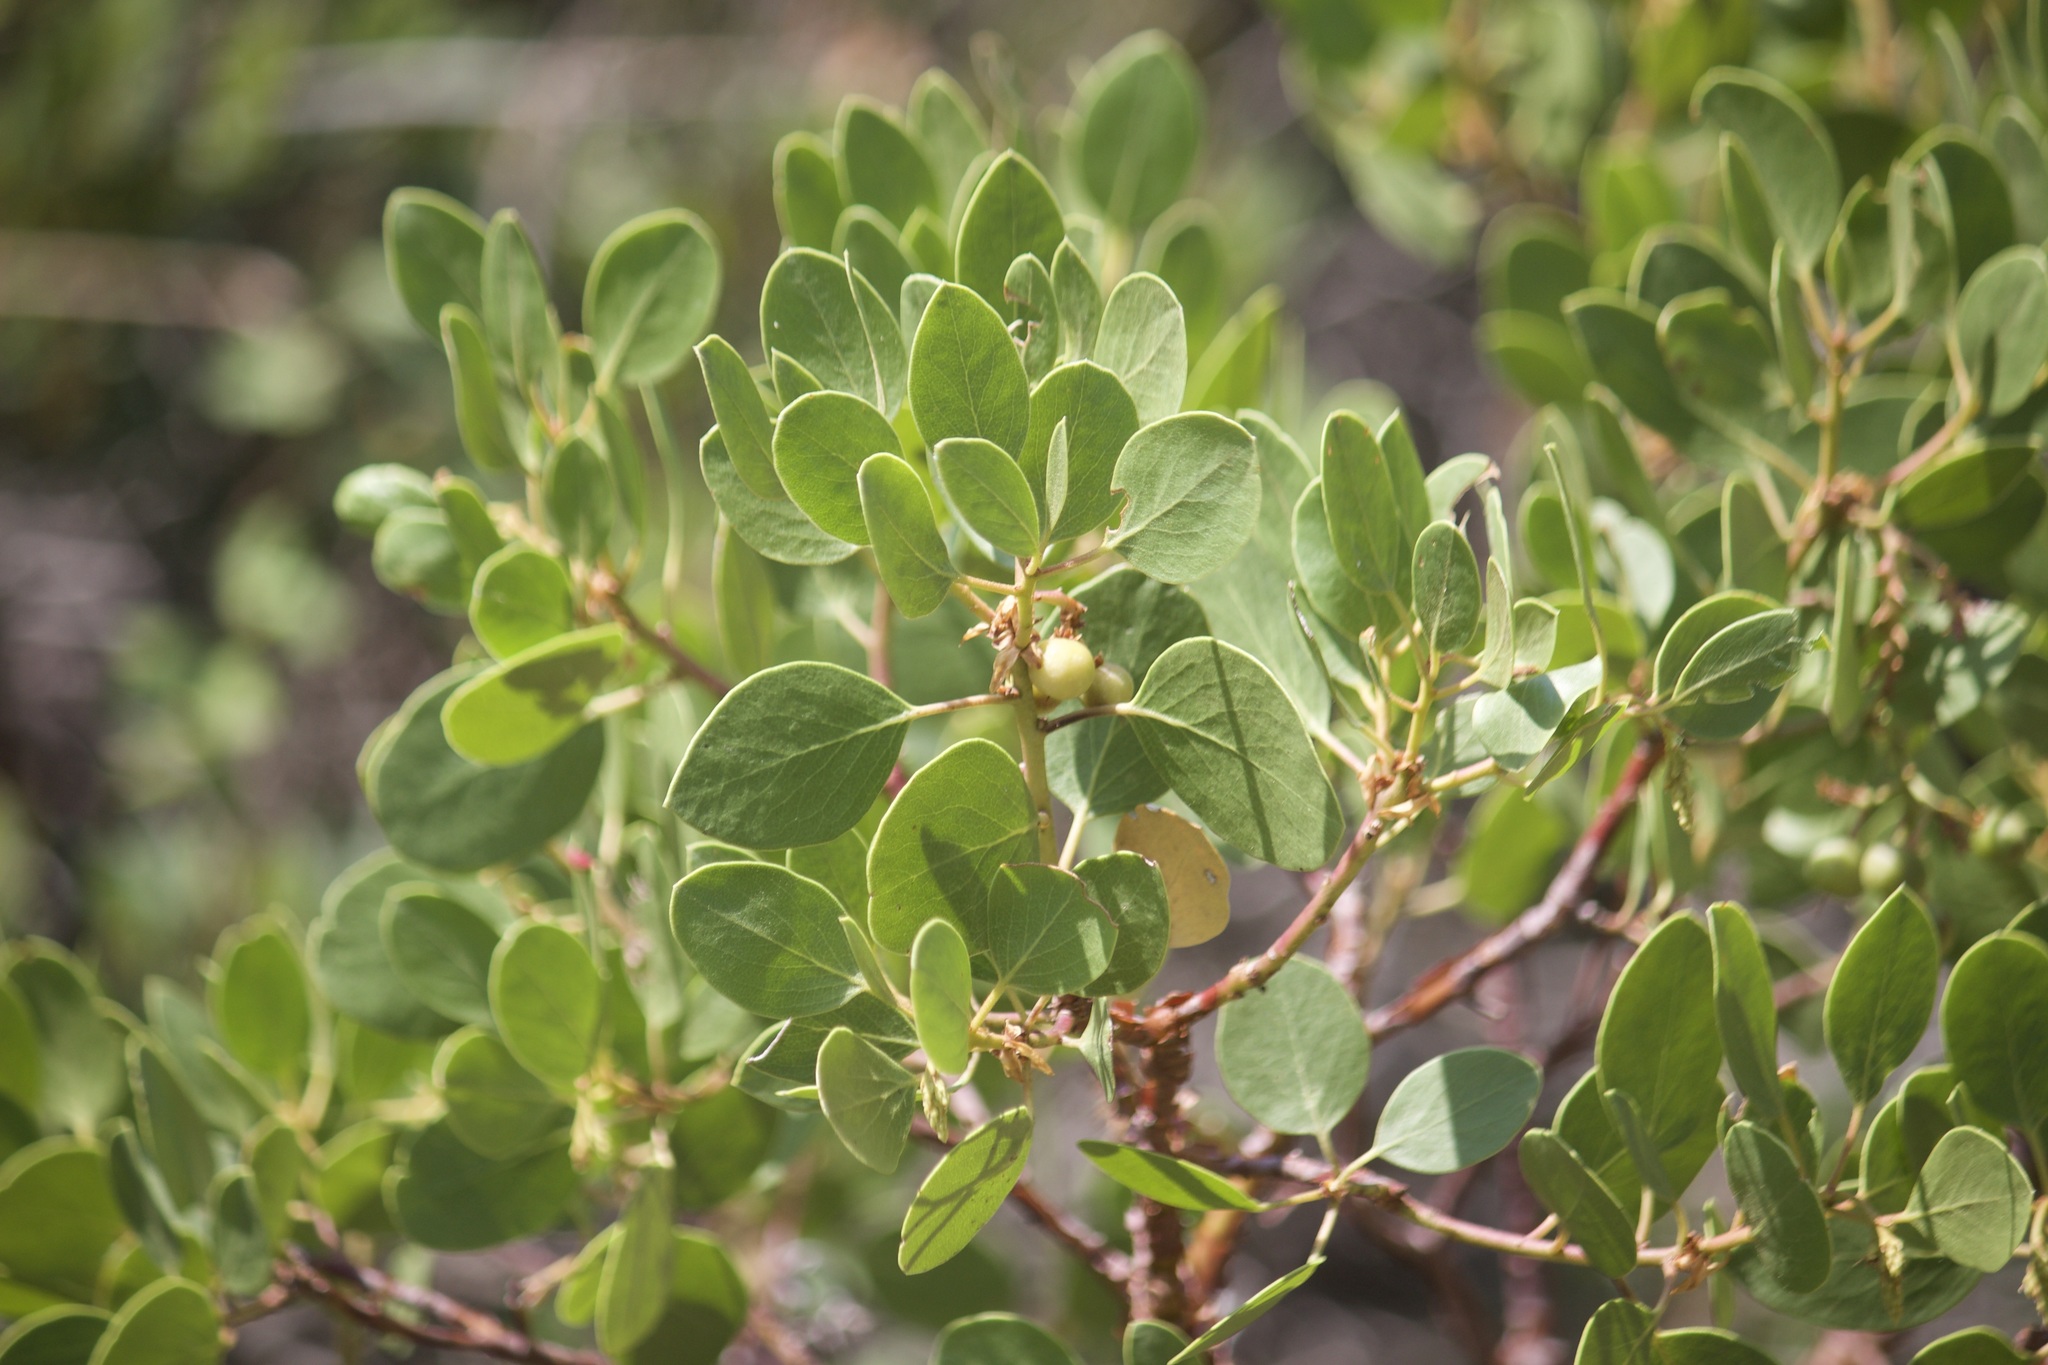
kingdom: Plantae
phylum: Tracheophyta
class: Magnoliopsida
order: Ericales
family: Ericaceae
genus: Arctostaphylos
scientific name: Arctostaphylos patula
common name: Green-leaf manzanita
